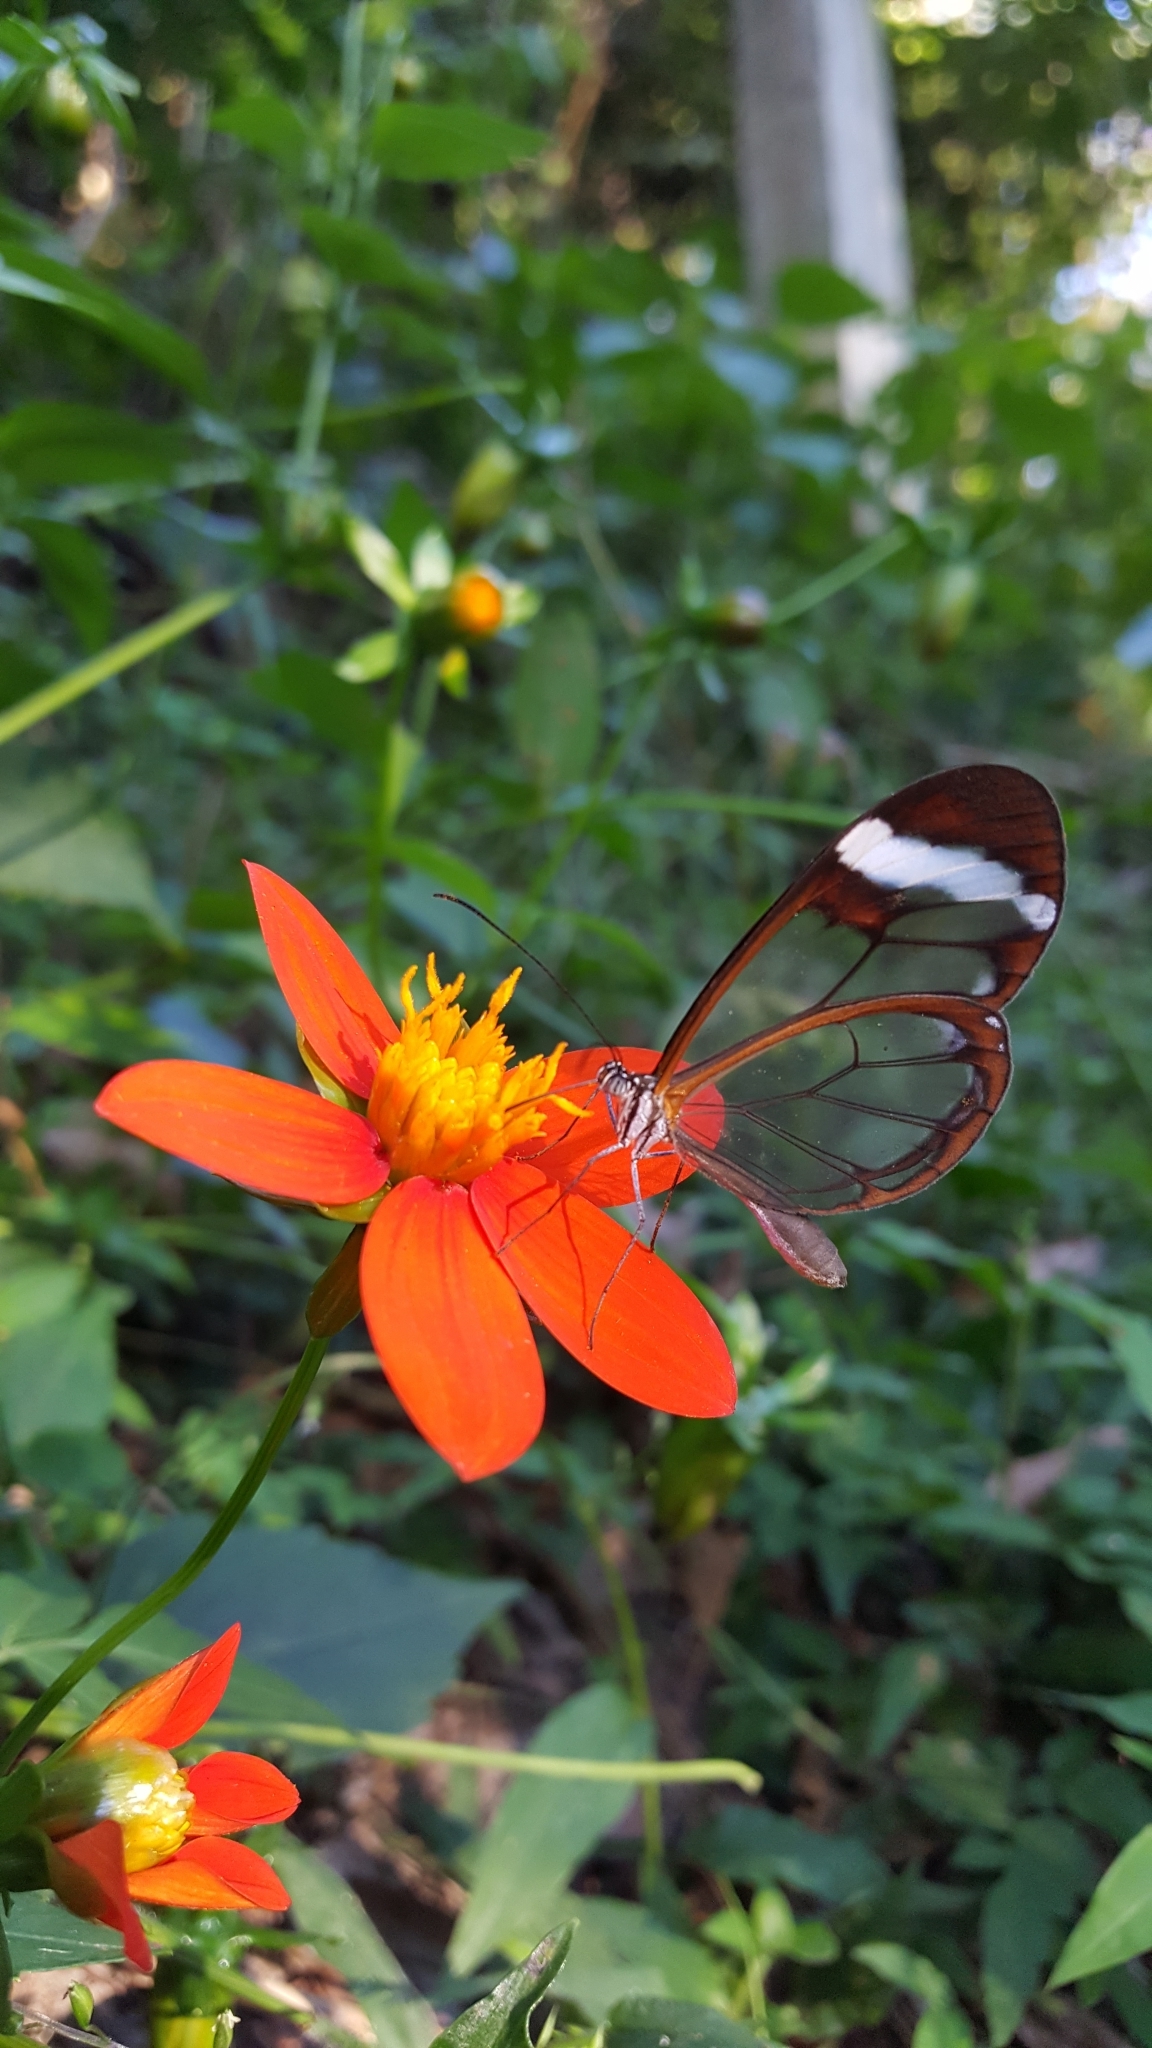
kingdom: Animalia
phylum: Arthropoda
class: Insecta
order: Lepidoptera
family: Nymphalidae
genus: Greta
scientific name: Greta morgane
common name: Thick-tipped greta
